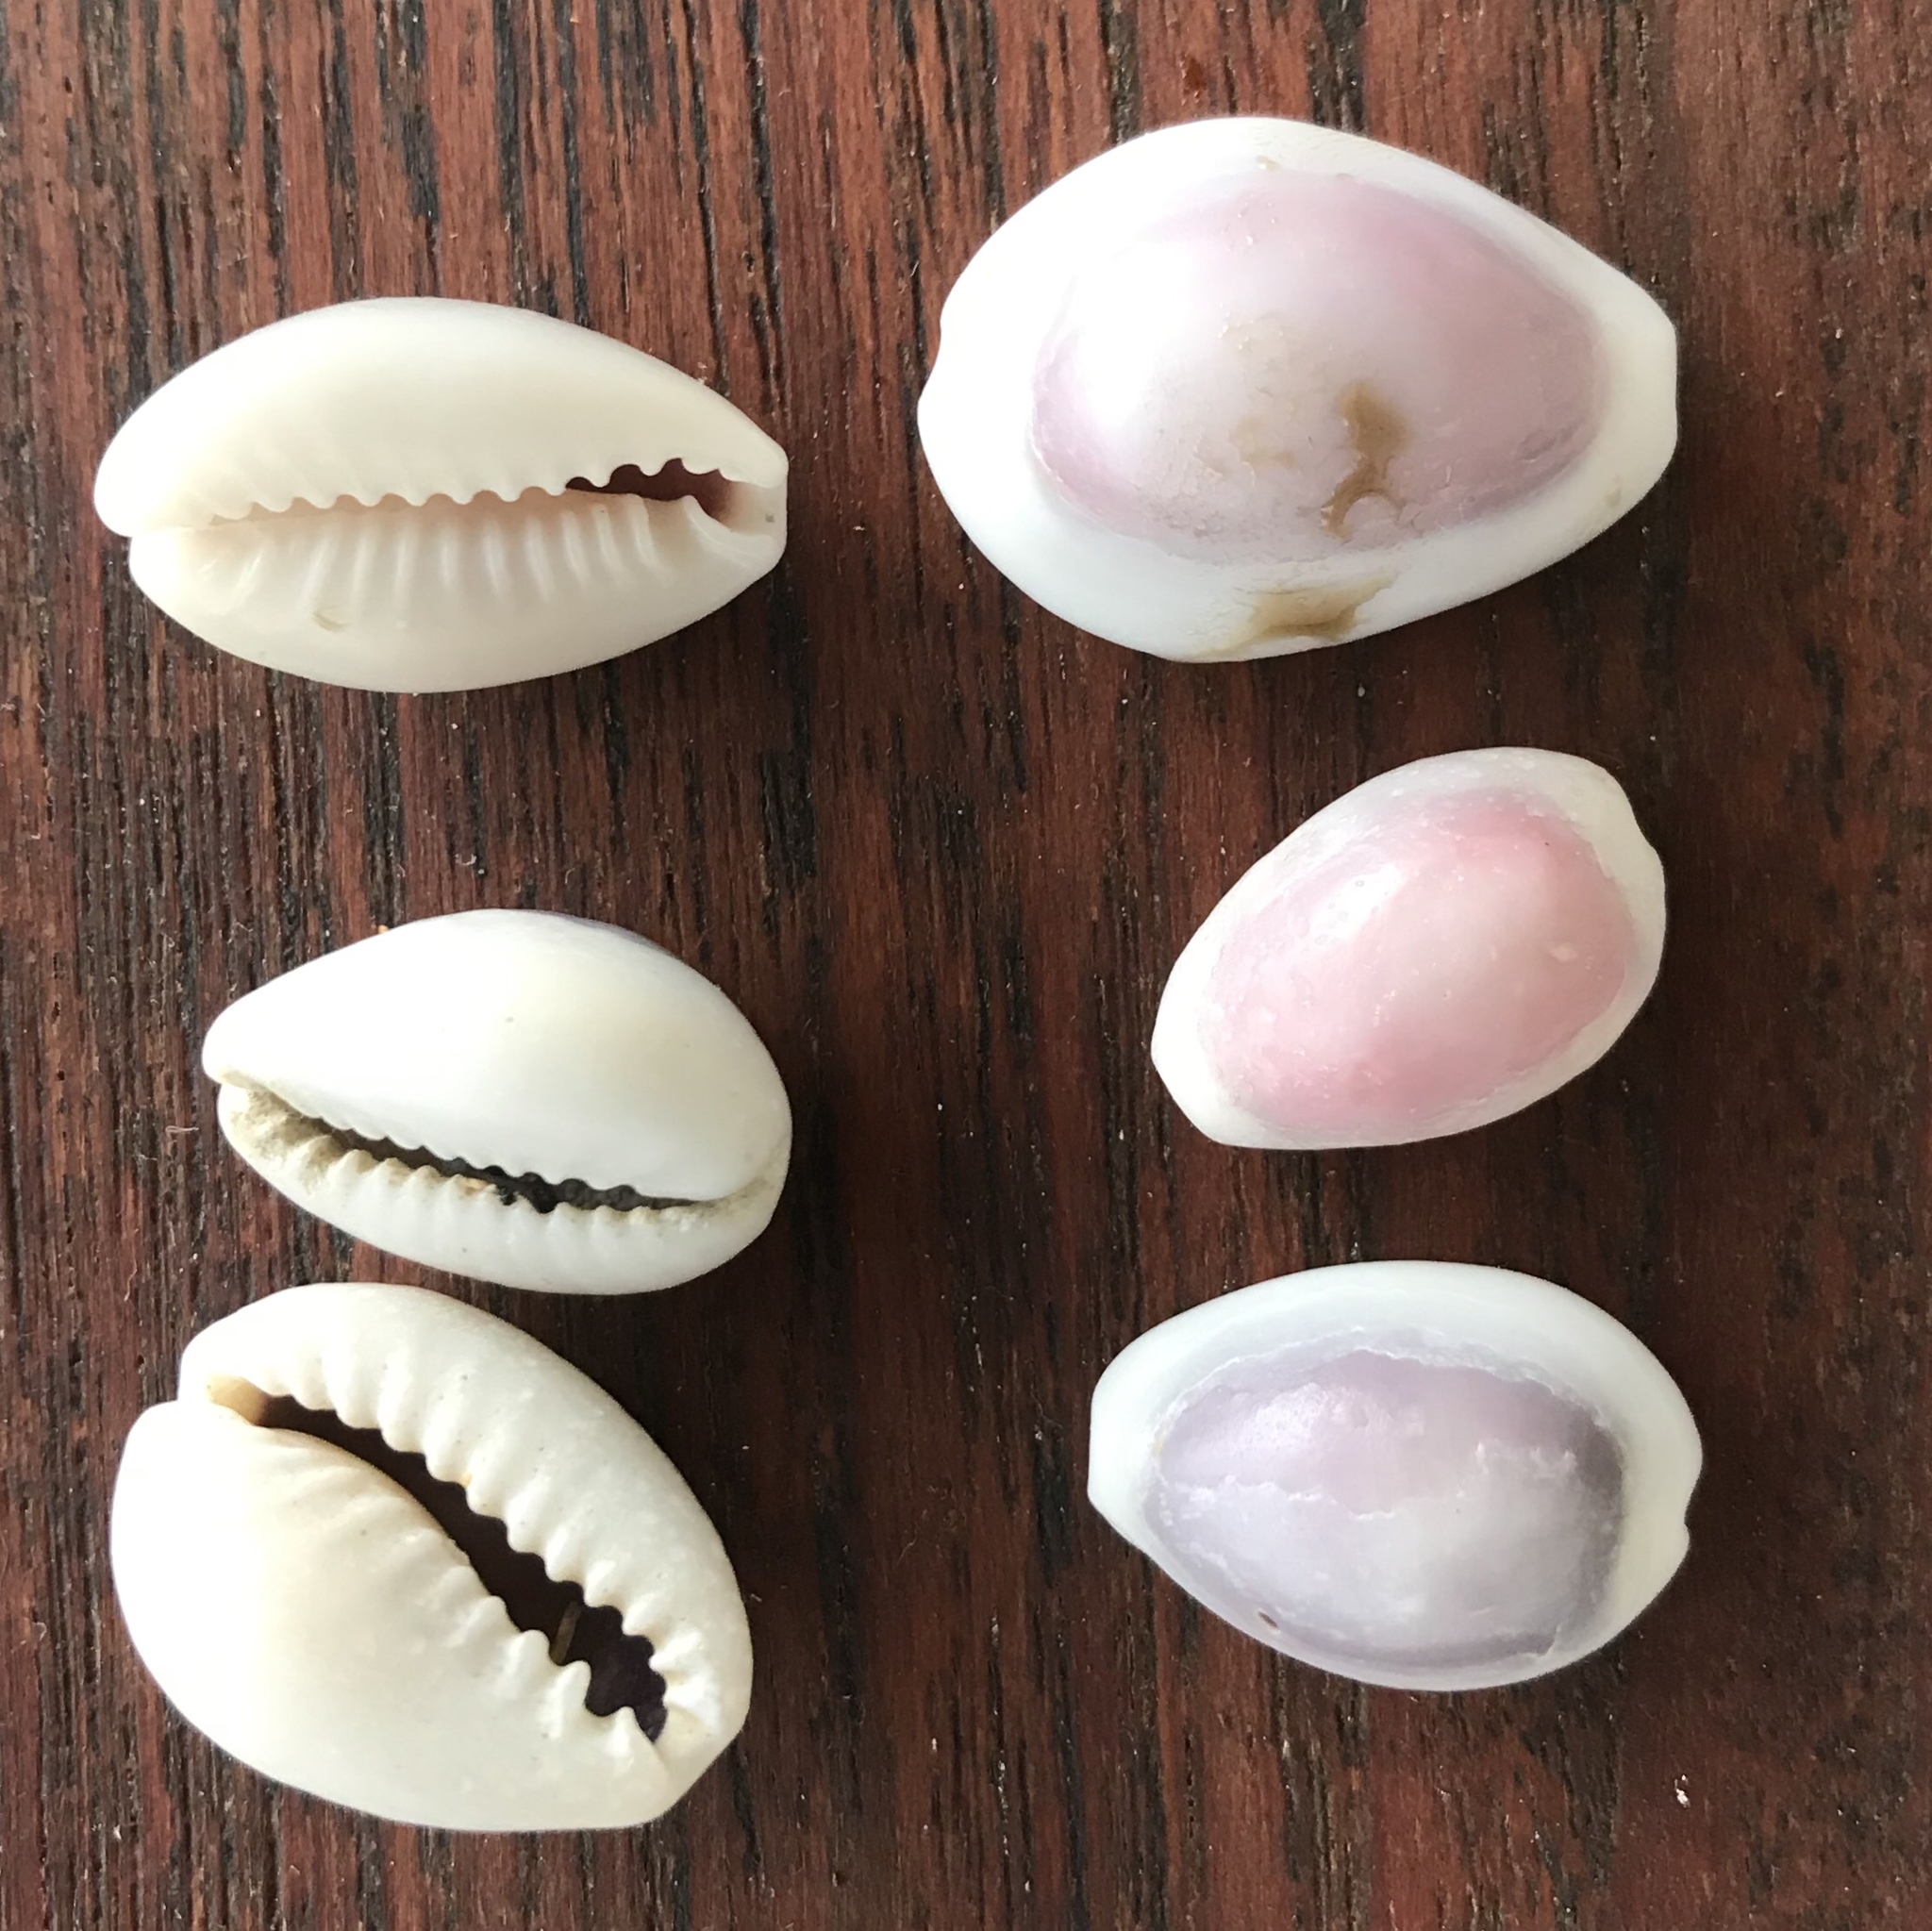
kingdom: Animalia
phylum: Mollusca
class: Gastropoda
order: Littorinimorpha
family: Cypraeidae
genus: Monetaria
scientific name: Monetaria annulus
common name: Ring cowrie
